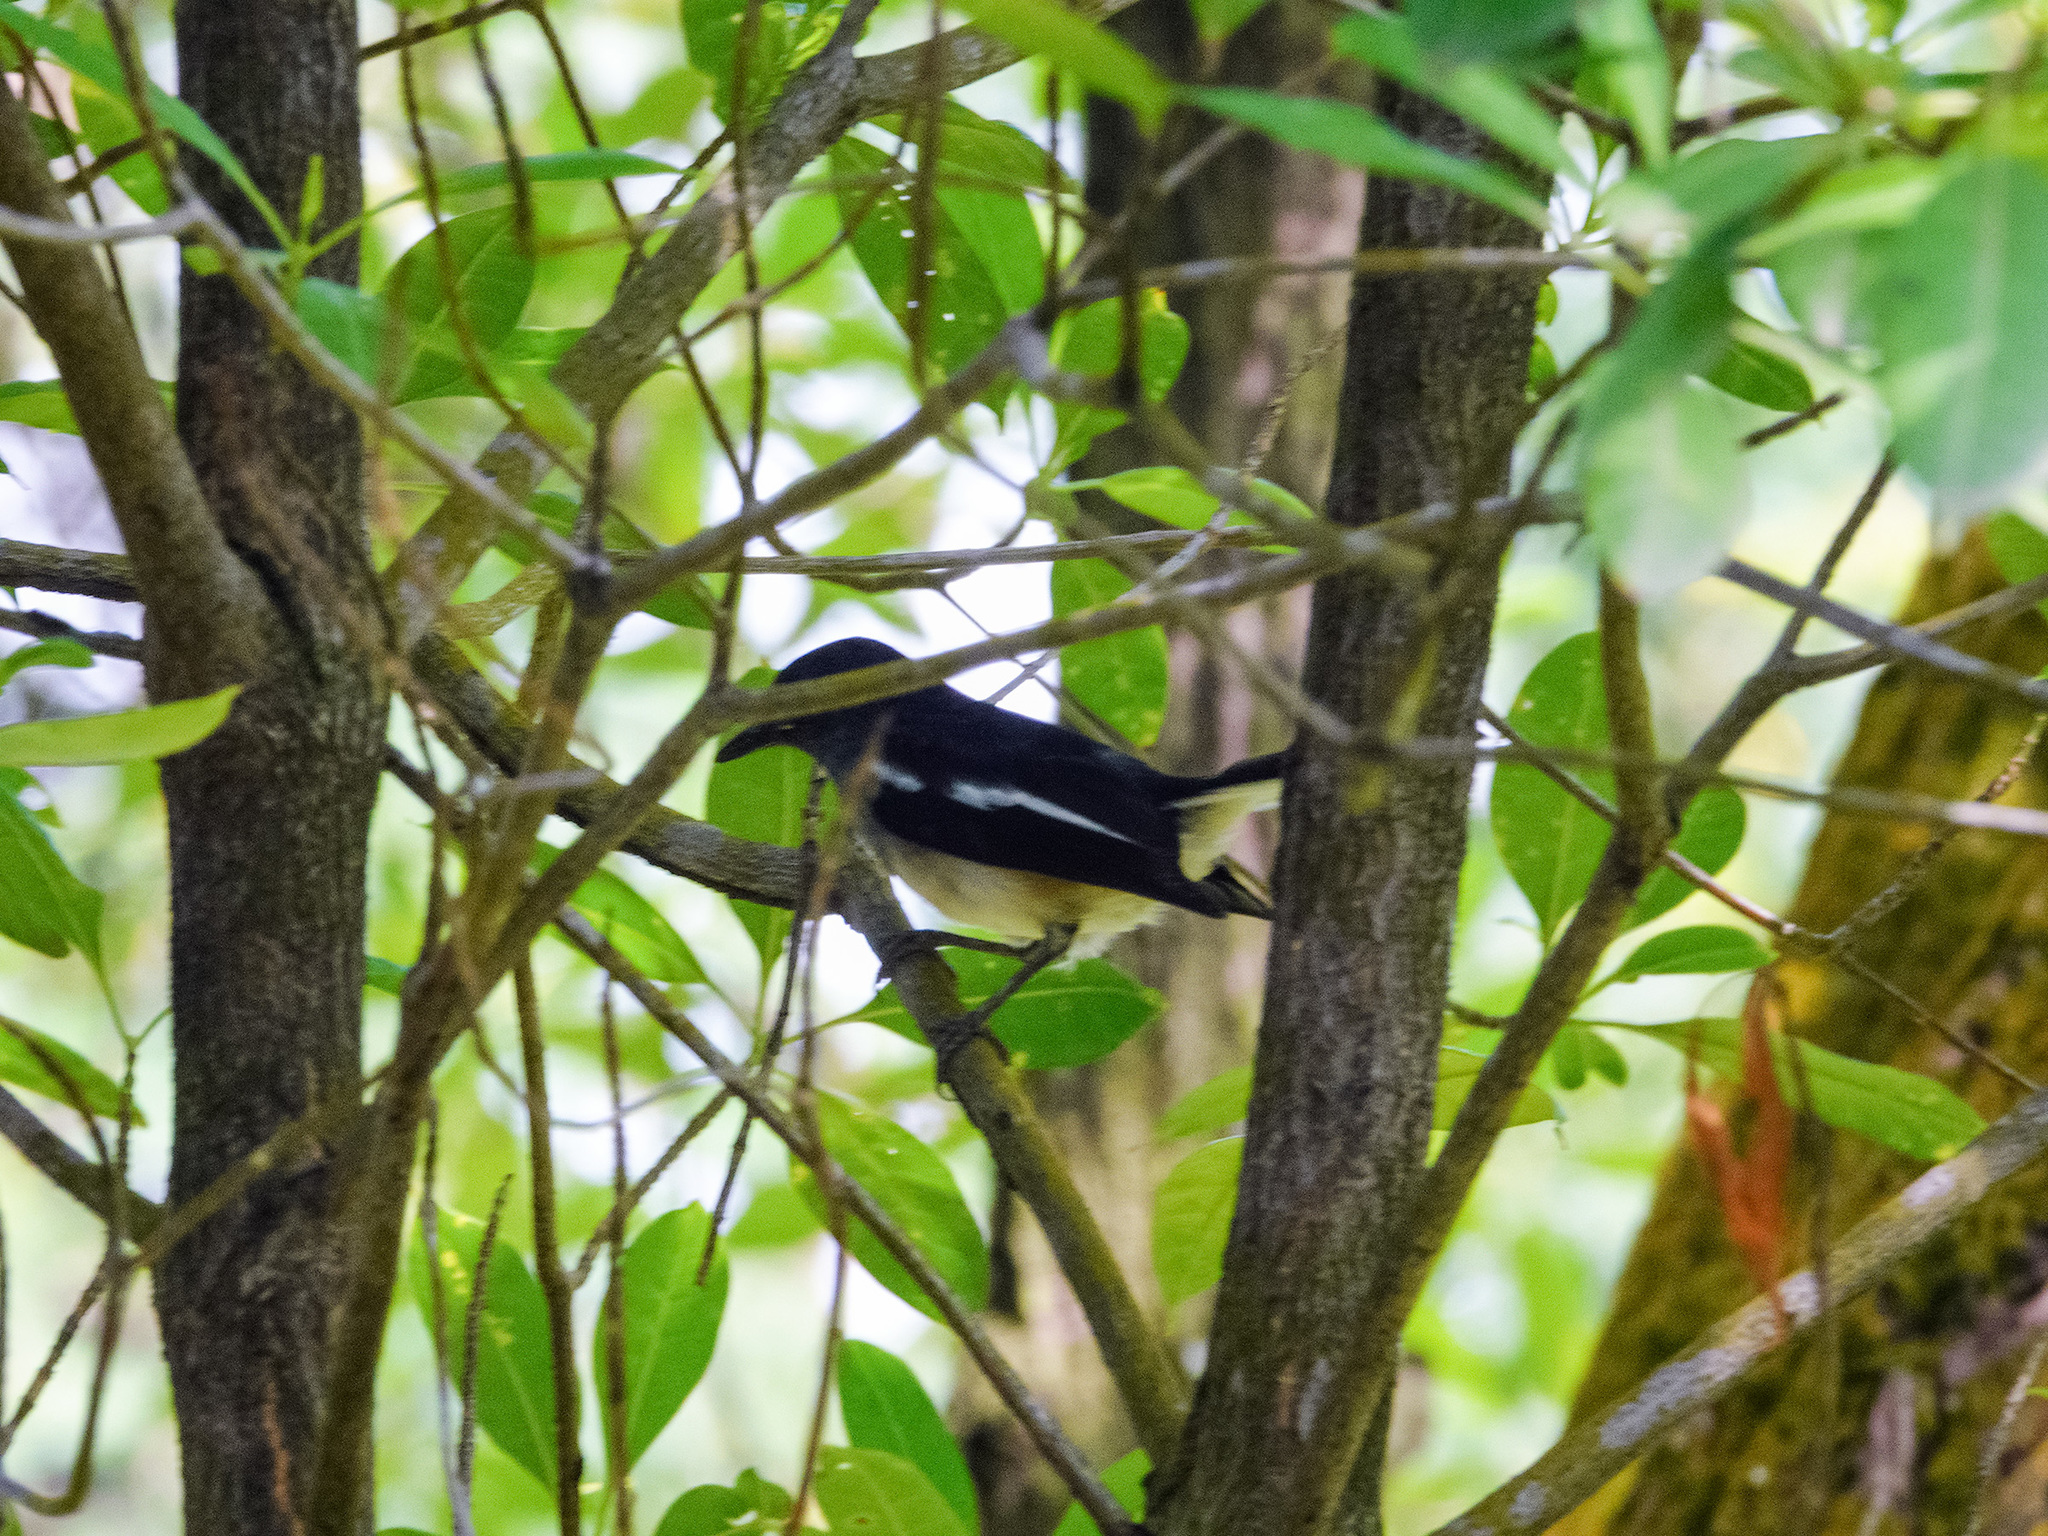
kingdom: Animalia
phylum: Chordata
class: Aves
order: Passeriformes
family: Muscicapidae
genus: Copsychus
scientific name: Copsychus saularis
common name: Oriental magpie-robin
